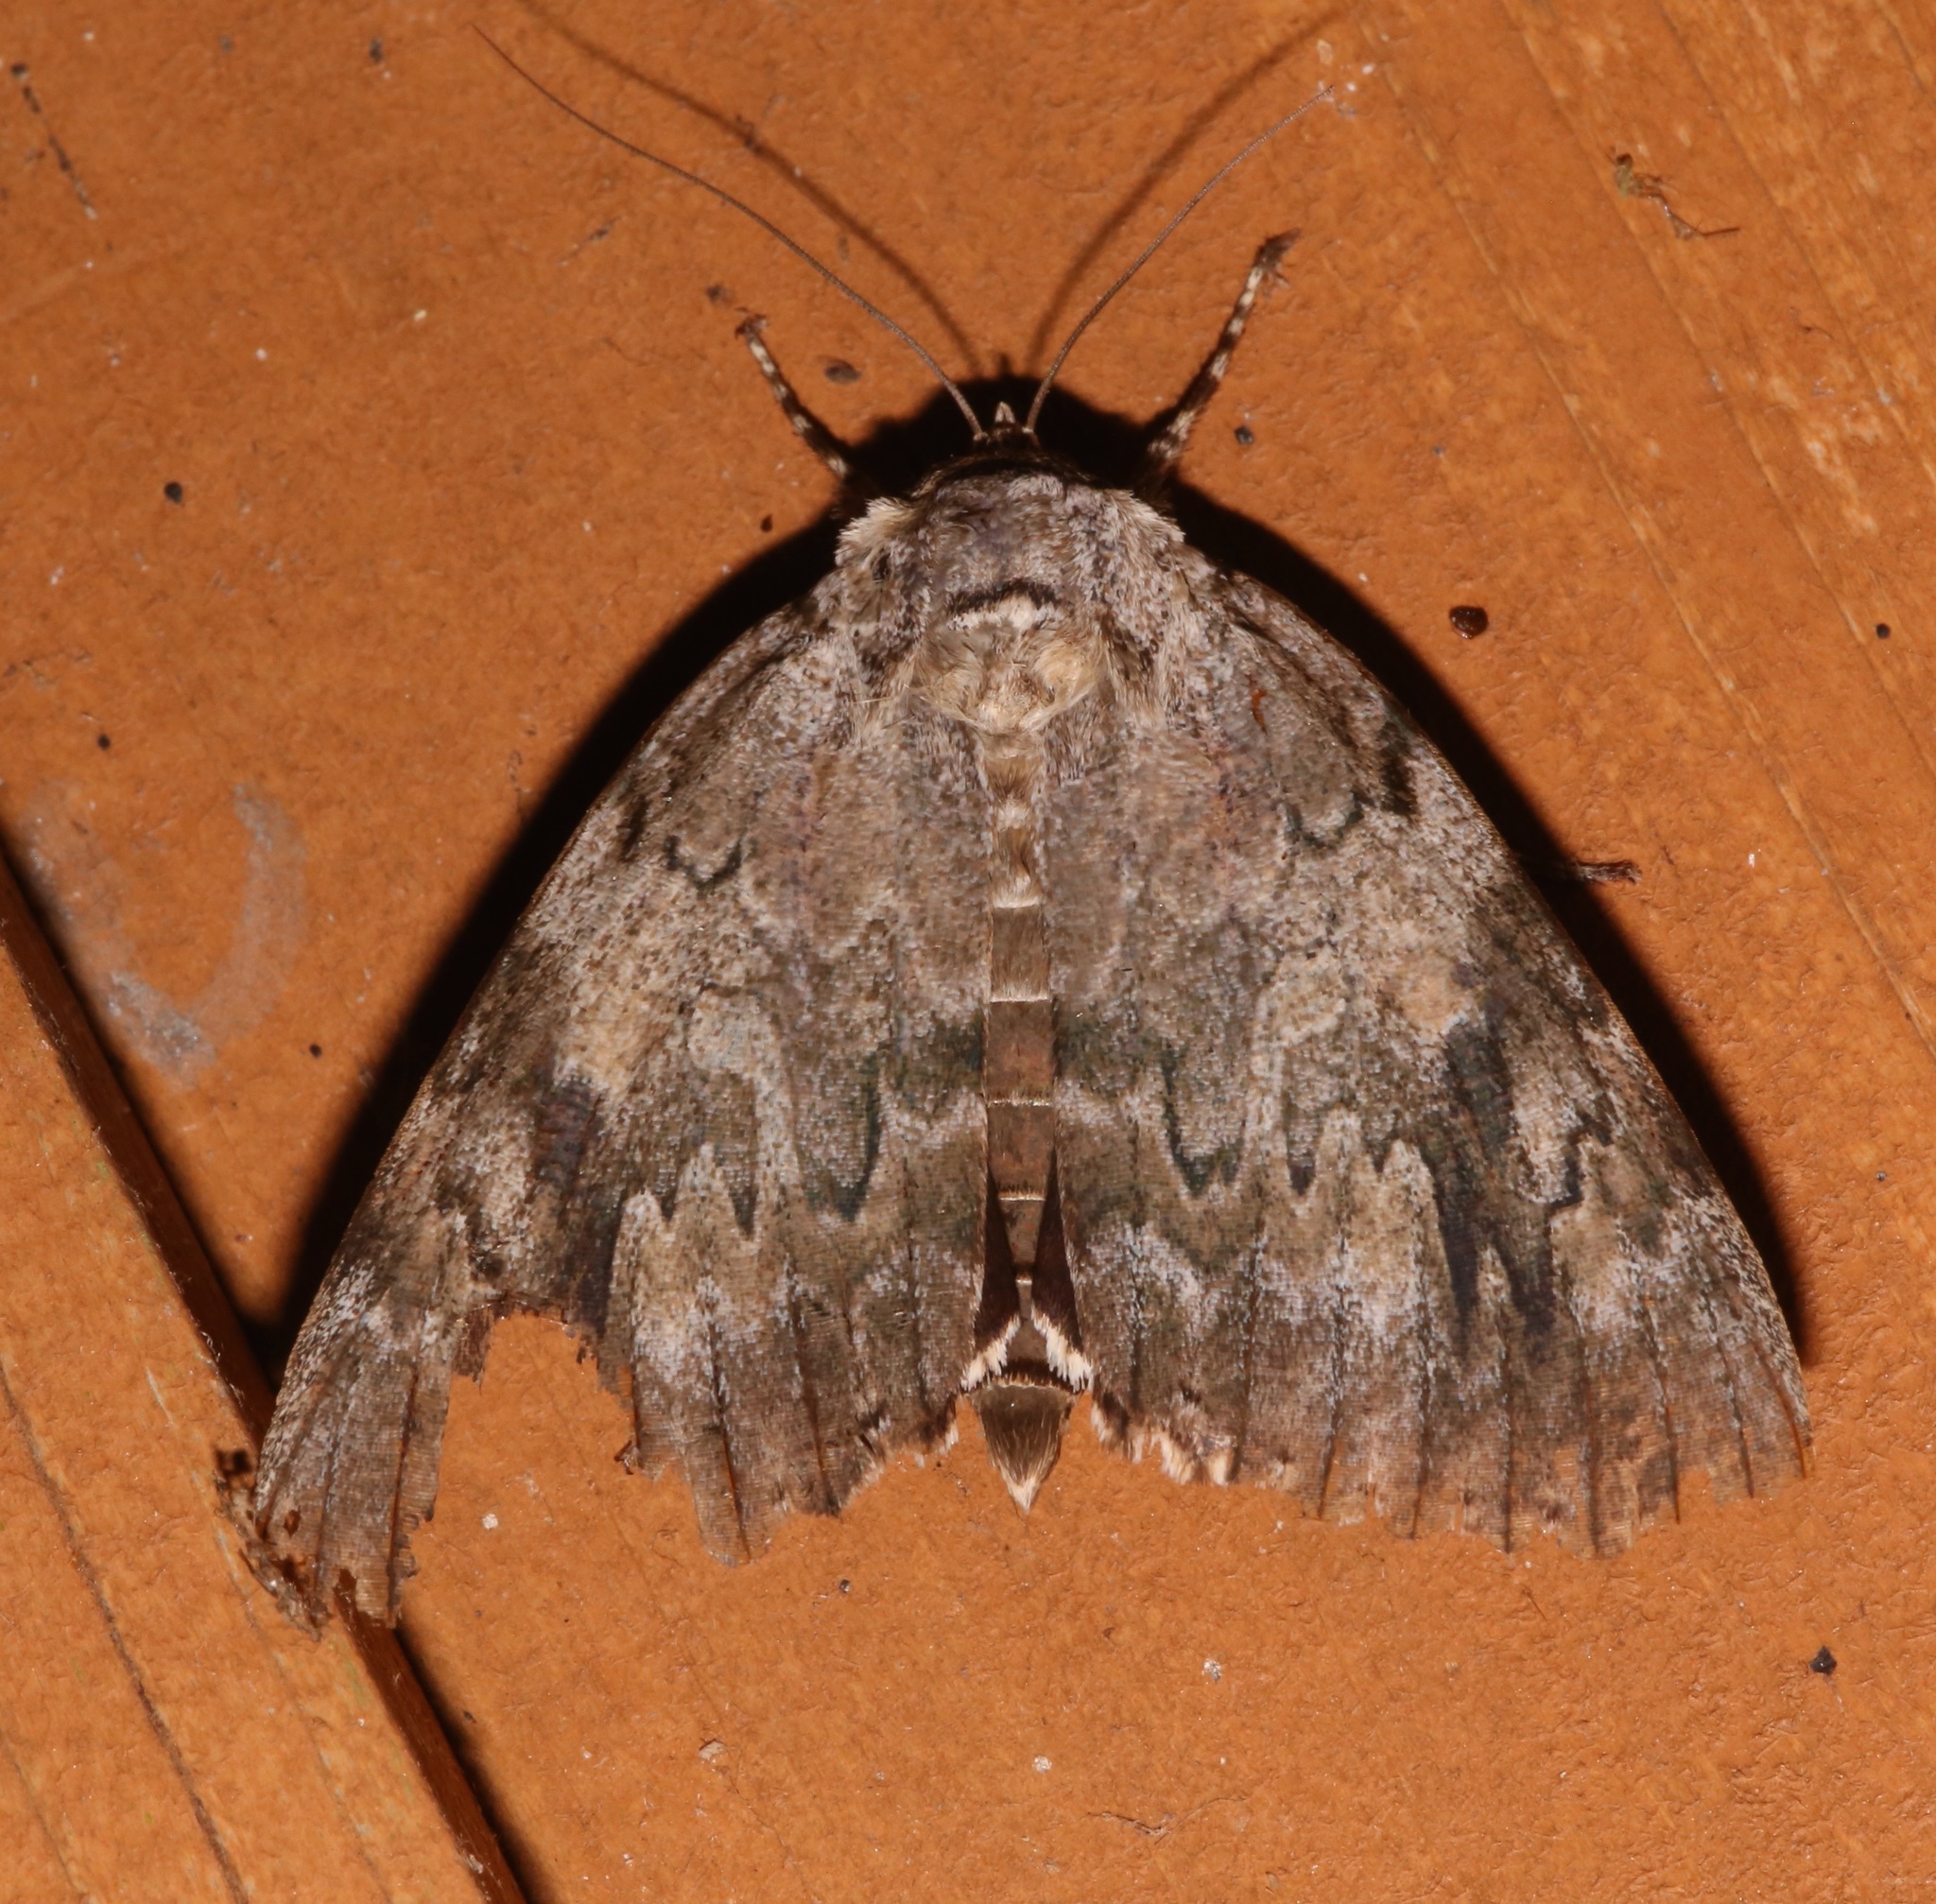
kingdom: Animalia
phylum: Arthropoda
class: Insecta
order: Lepidoptera
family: Erebidae
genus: Catocala
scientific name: Catocala agrippina
